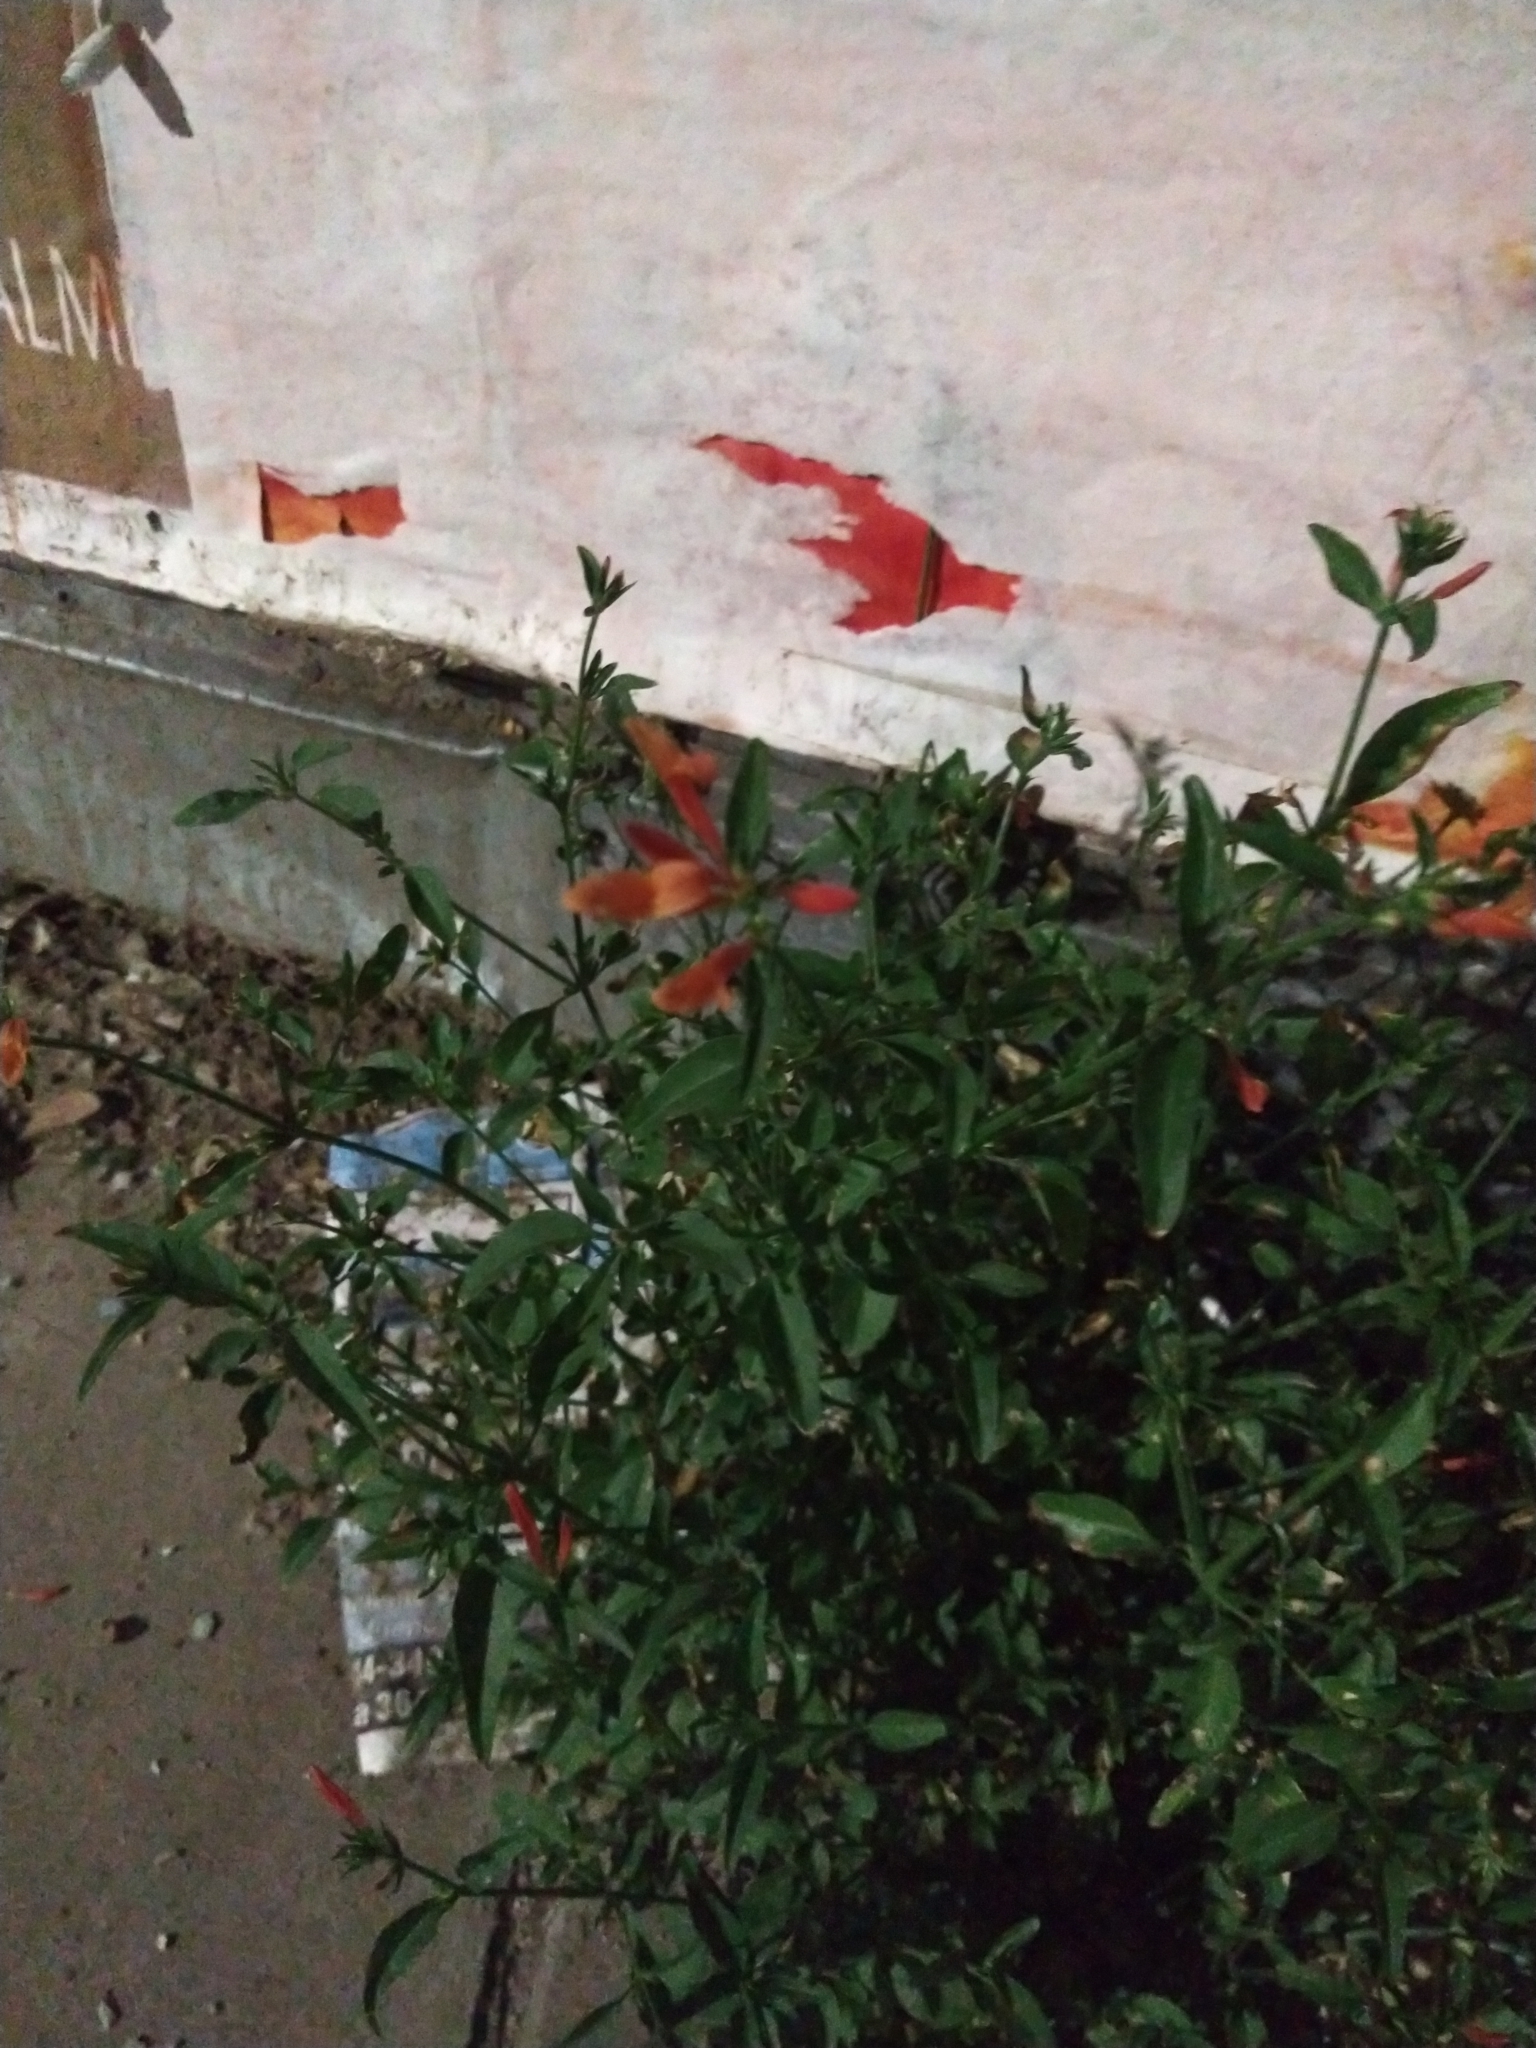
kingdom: Plantae
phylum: Tracheophyta
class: Magnoliopsida
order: Lamiales
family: Acanthaceae
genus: Dicliptera
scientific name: Dicliptera squarrosa
